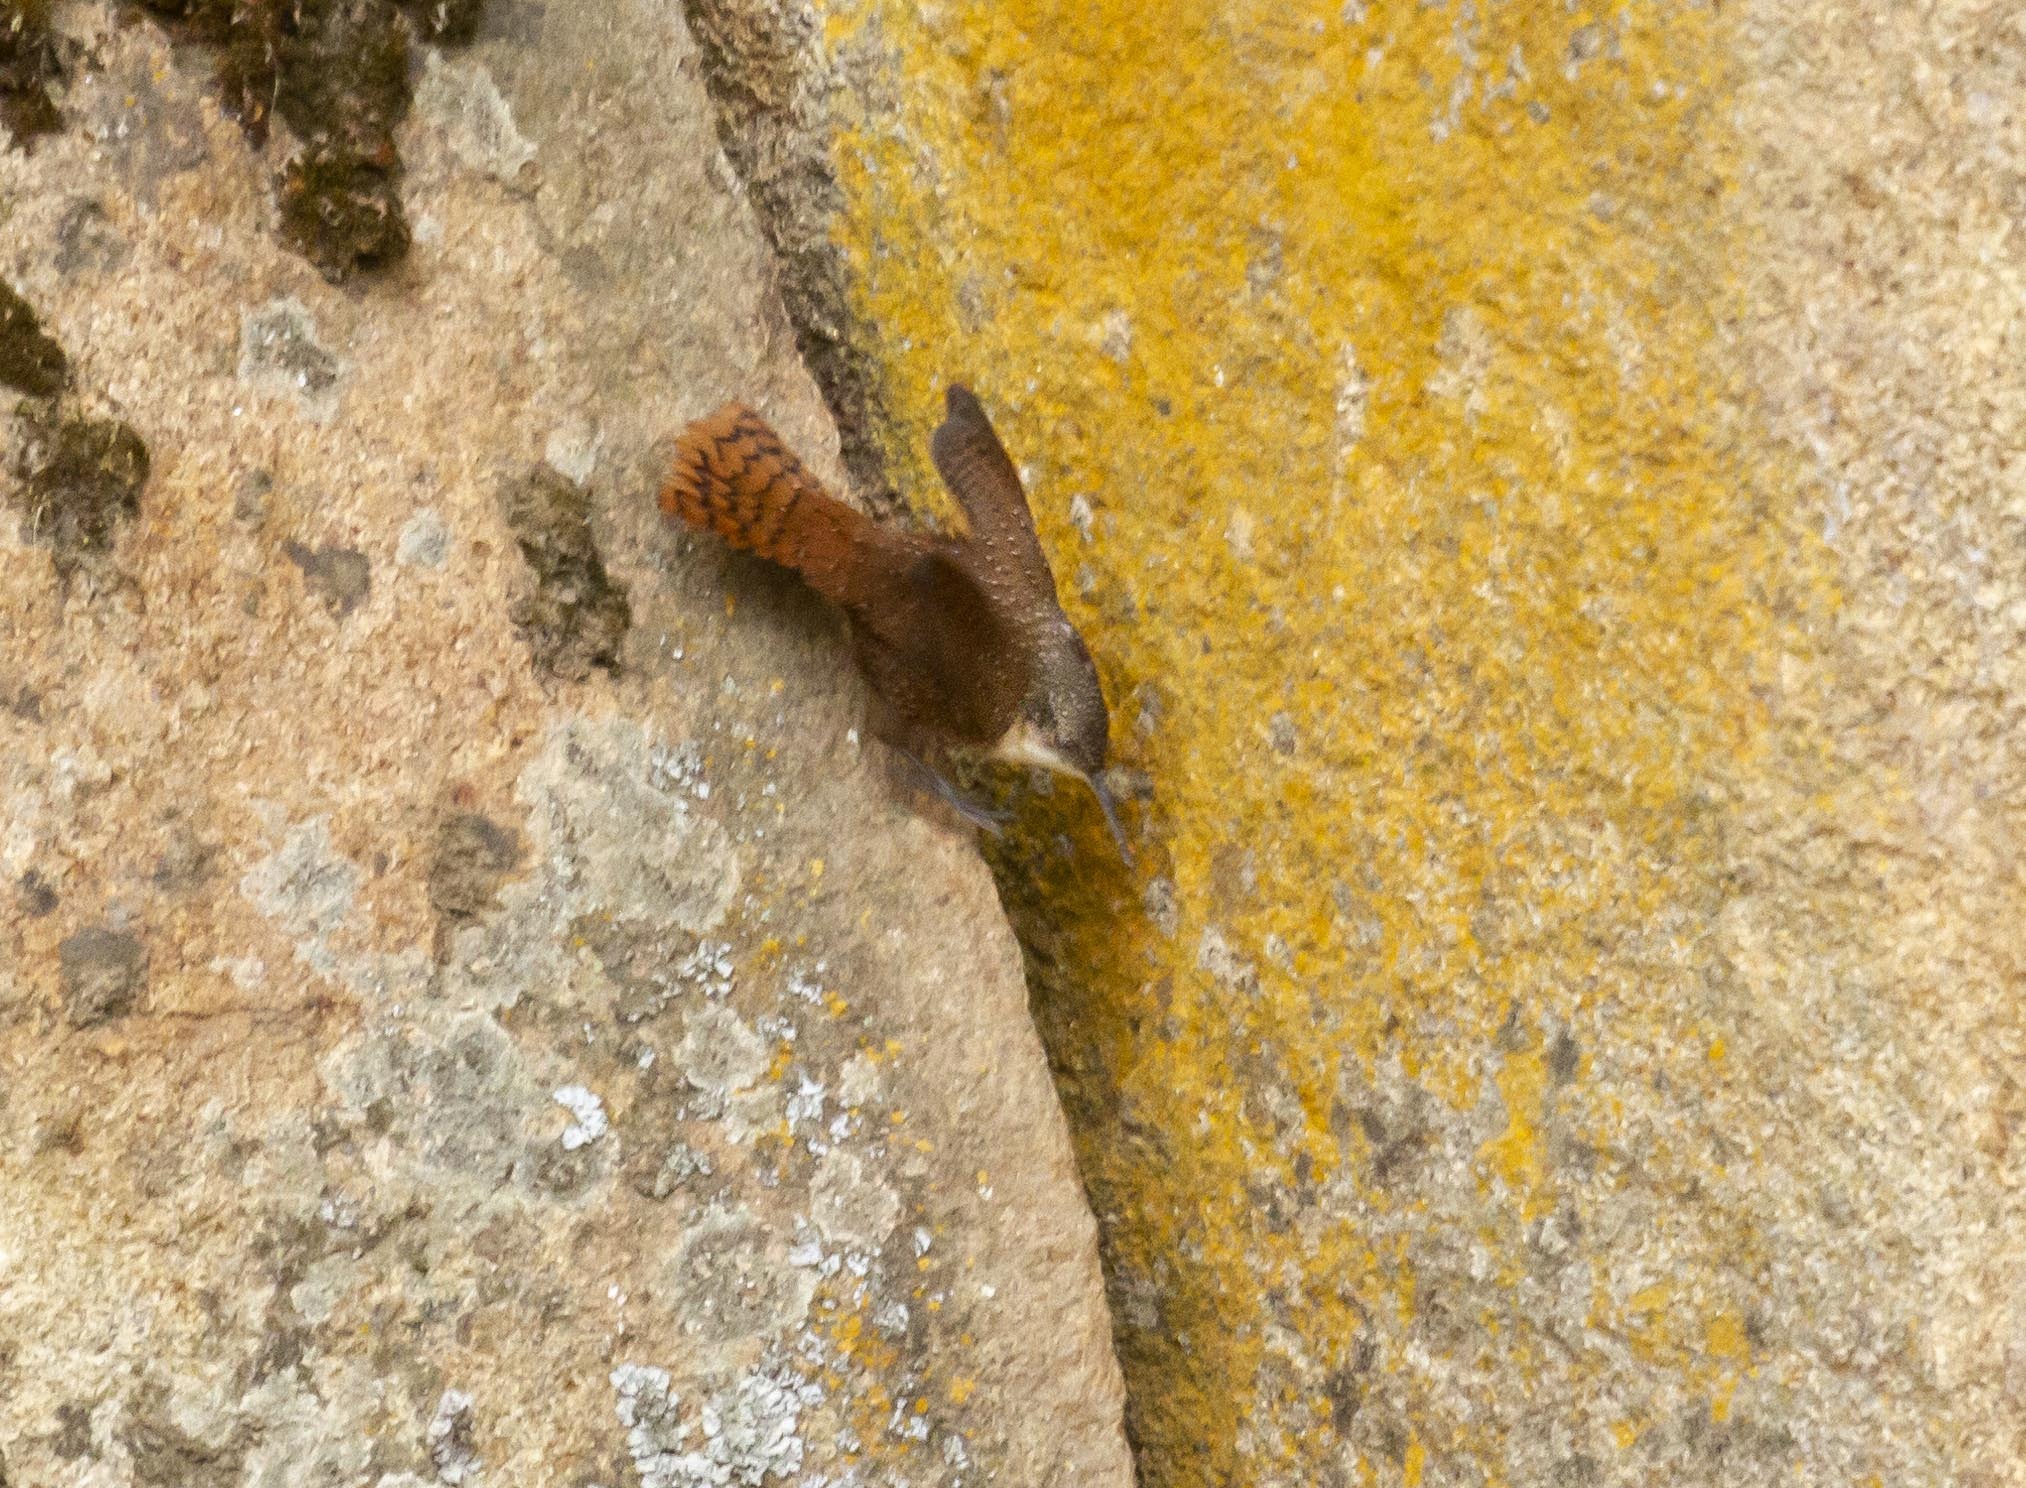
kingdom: Animalia
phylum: Chordata
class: Aves
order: Passeriformes
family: Troglodytidae
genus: Catherpes
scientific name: Catherpes mexicanus
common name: Canyon wren
